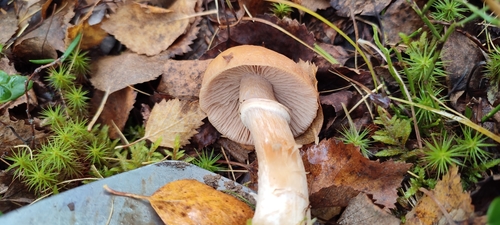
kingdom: Fungi
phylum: Basidiomycota
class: Agaricomycetes
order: Agaricales
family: Cortinariaceae
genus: Cortinarius
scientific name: Cortinarius caperatus
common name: The gypsy
